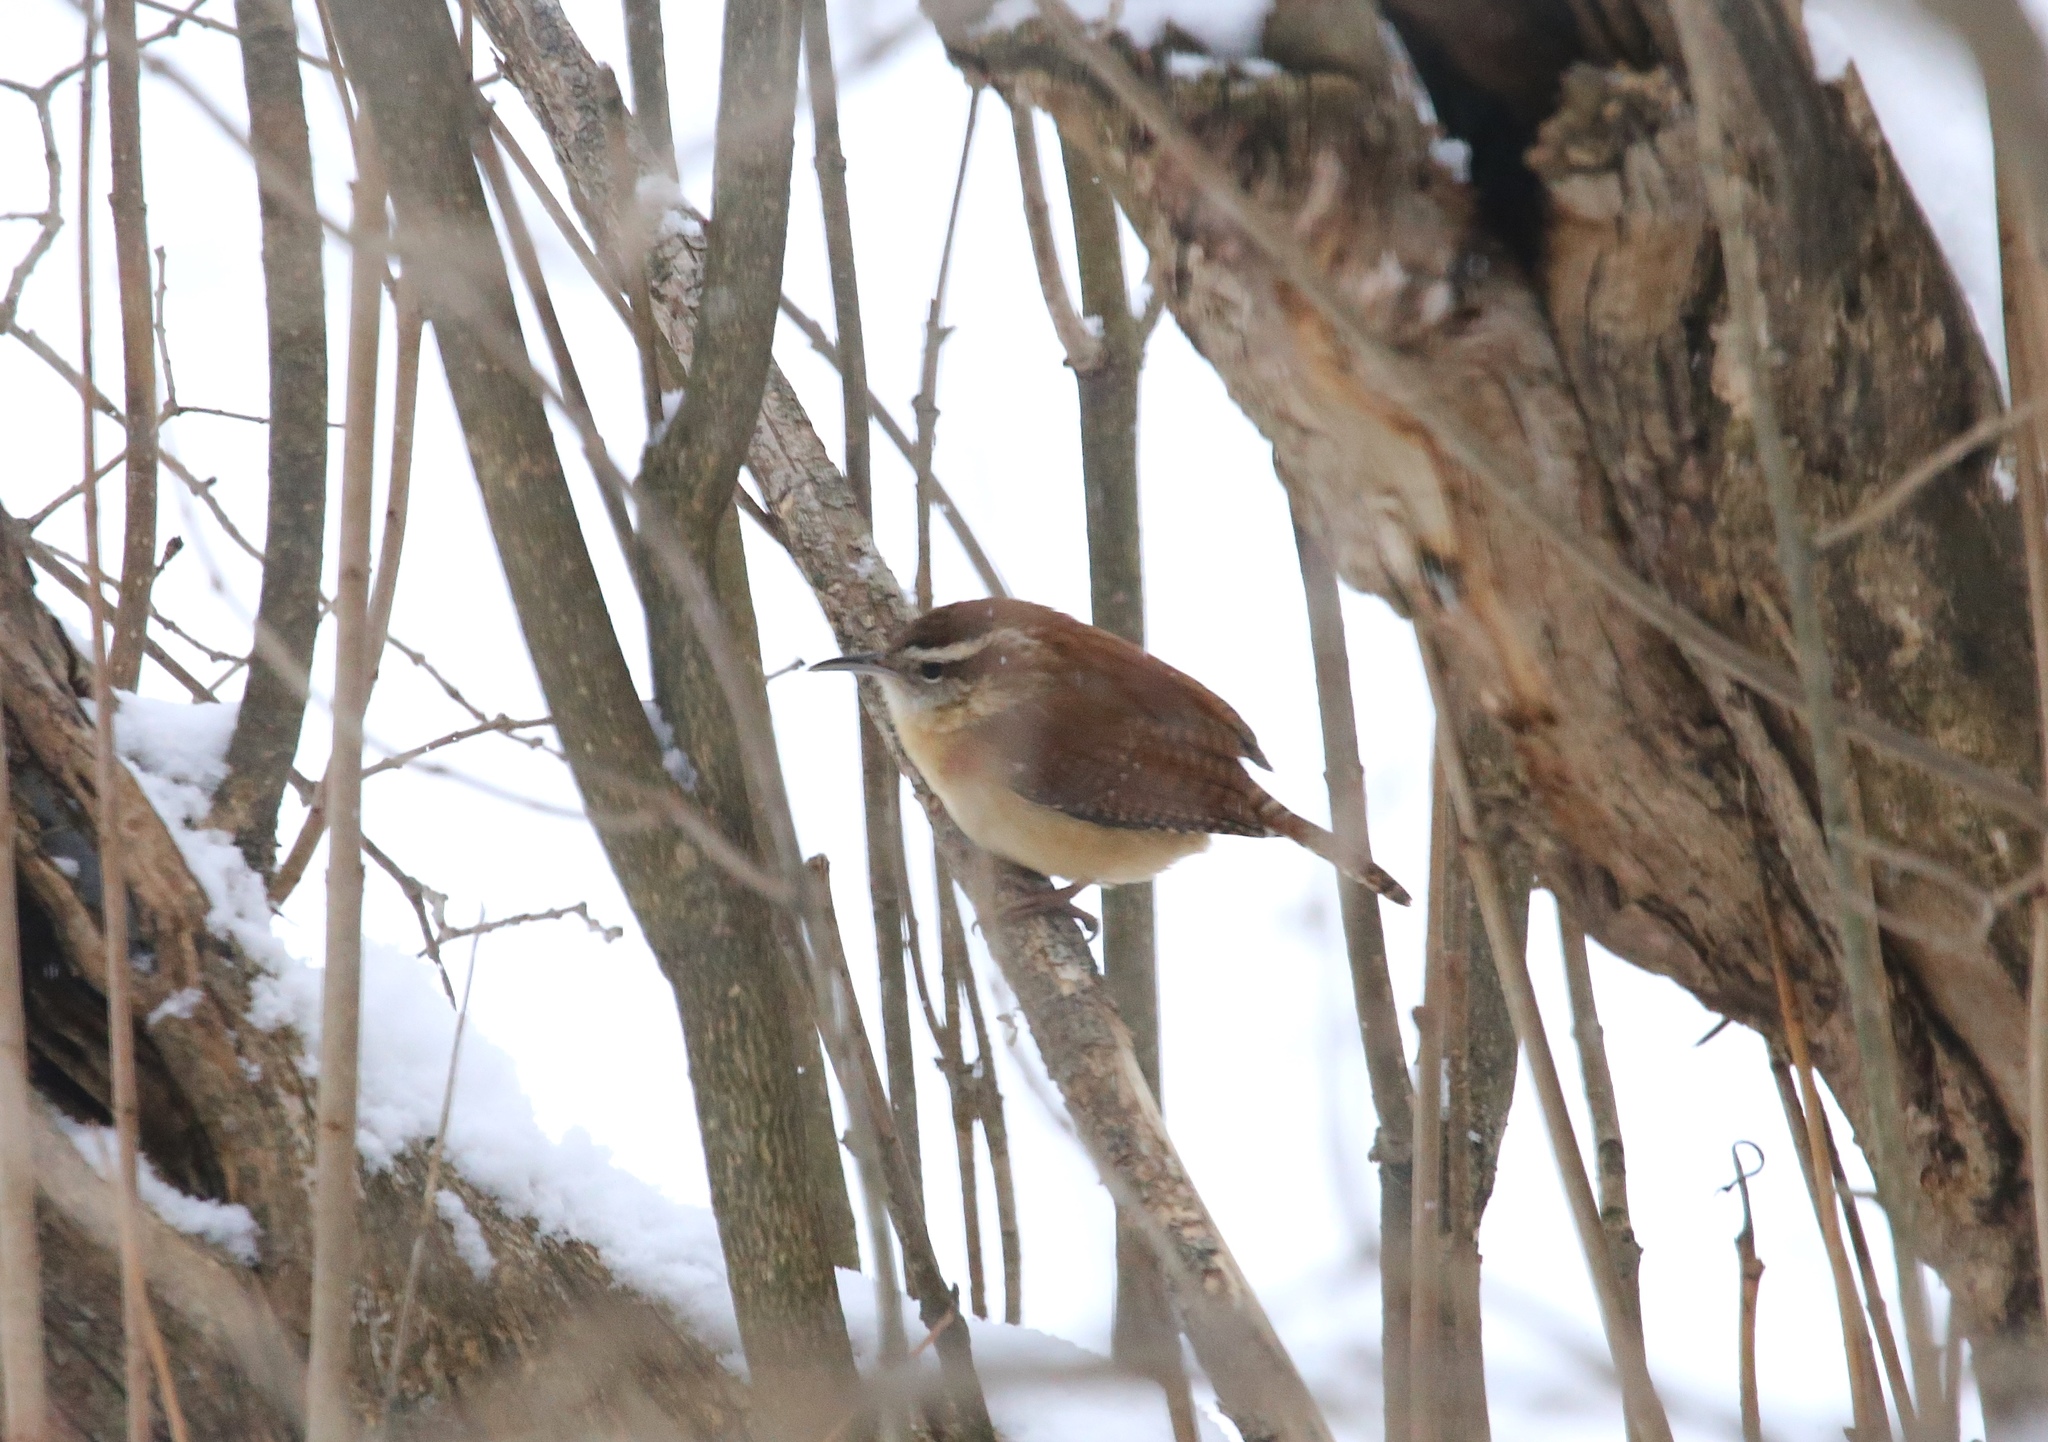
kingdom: Animalia
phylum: Chordata
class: Aves
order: Passeriformes
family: Troglodytidae
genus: Thryothorus
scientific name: Thryothorus ludovicianus
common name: Carolina wren
